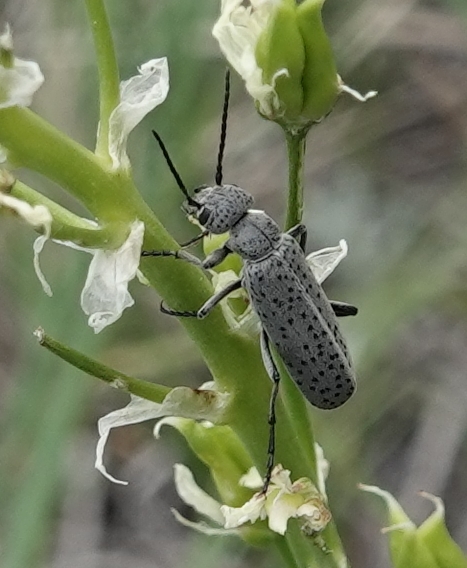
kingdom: Animalia
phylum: Arthropoda
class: Insecta
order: Coleoptera
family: Meloidae
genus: Epicauta
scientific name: Epicauta oregona
